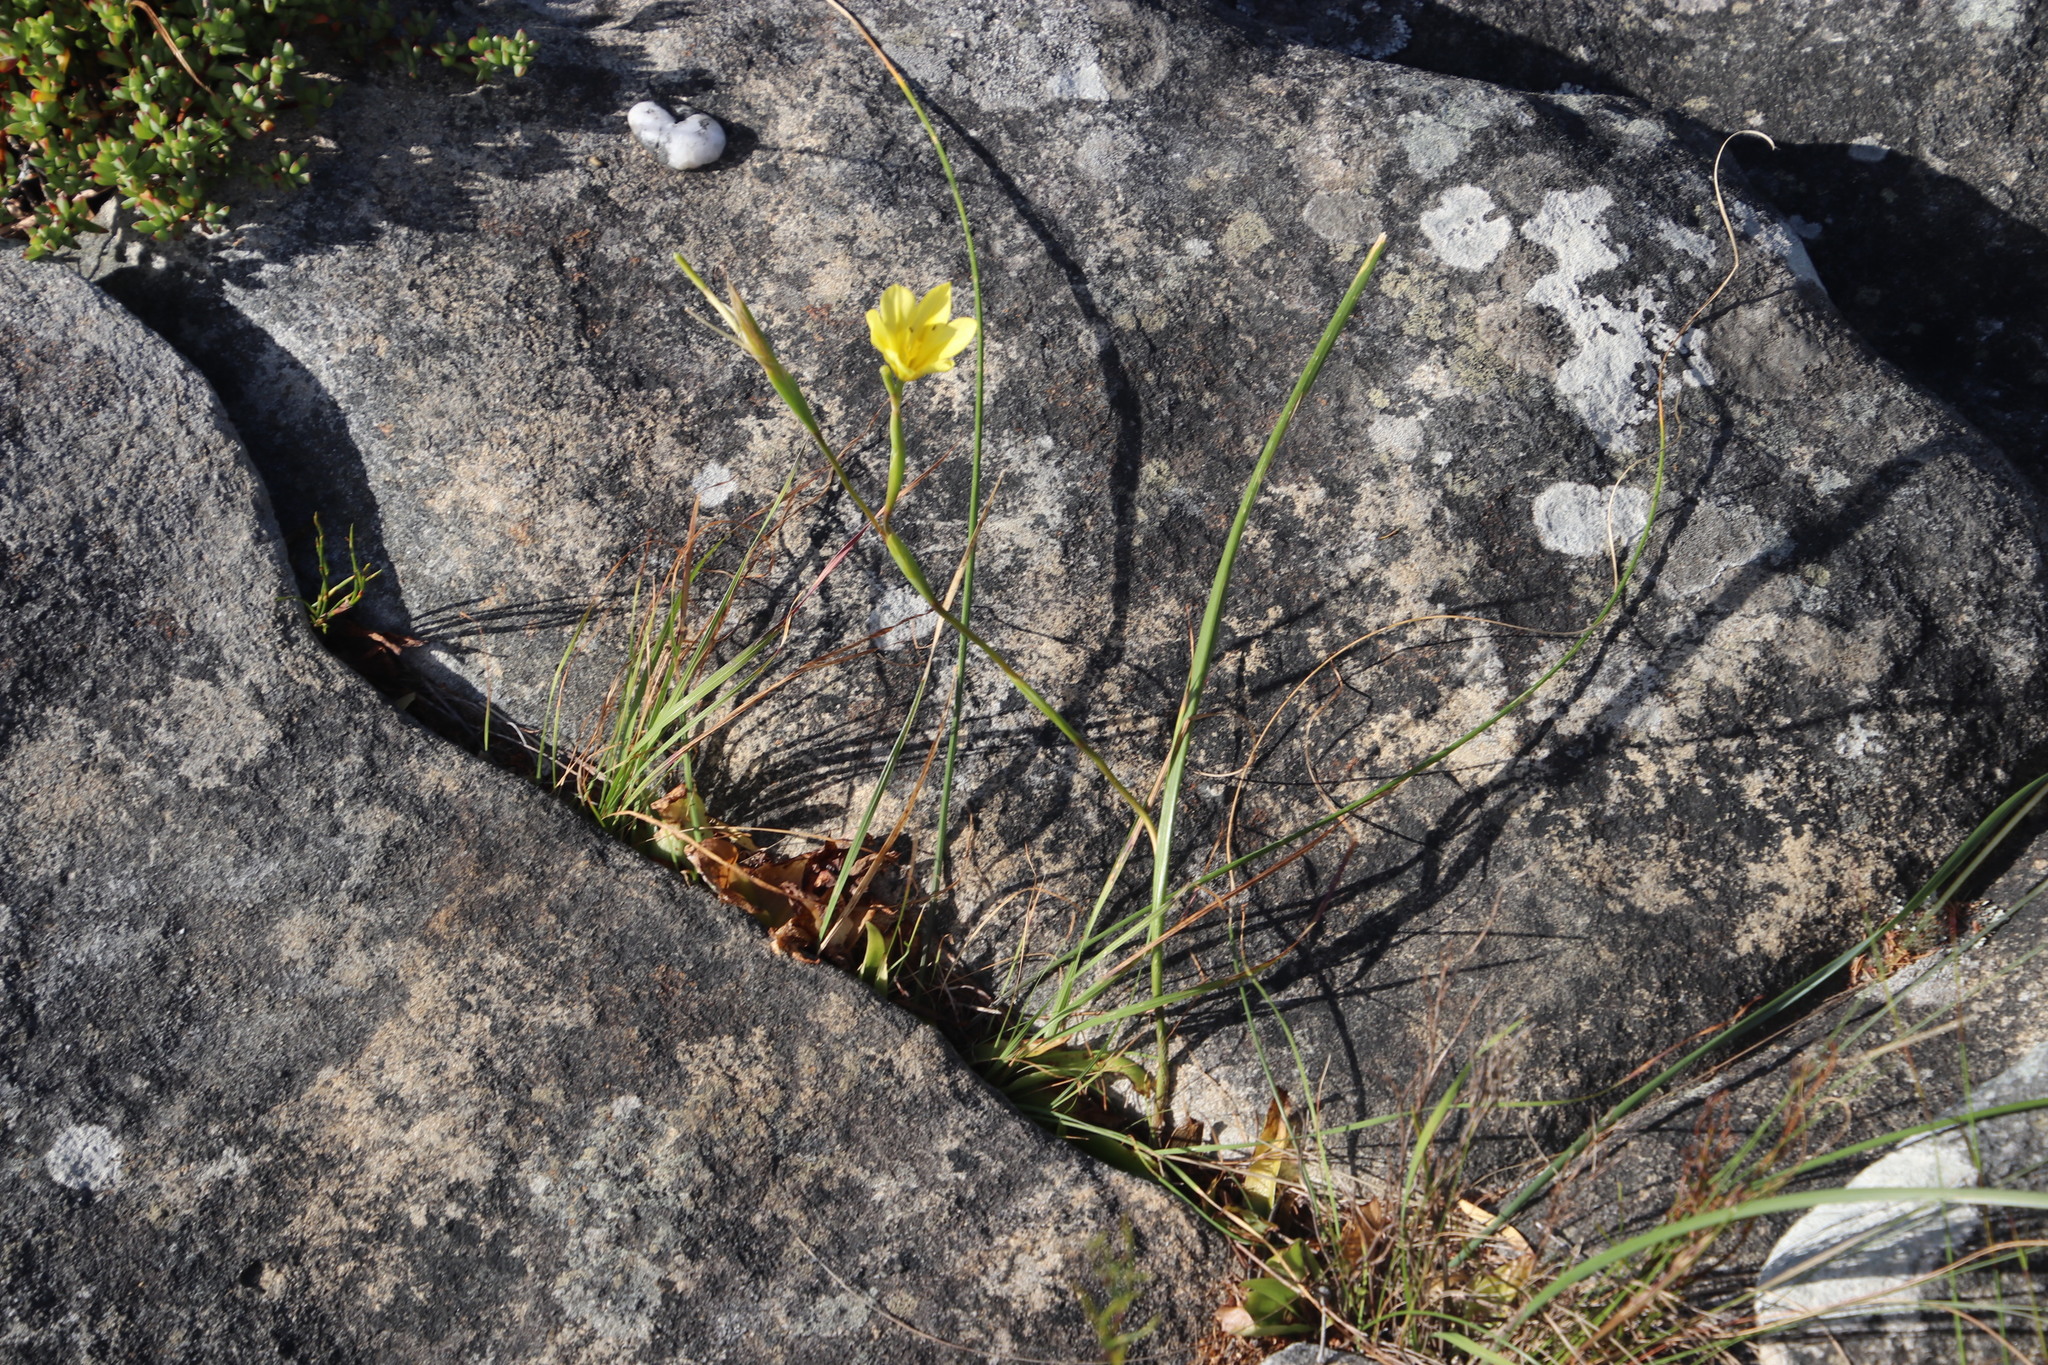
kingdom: Plantae
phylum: Tracheophyta
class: Liliopsida
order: Asparagales
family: Iridaceae
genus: Moraea
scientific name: Moraea ochroleuca
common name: Red tulp
